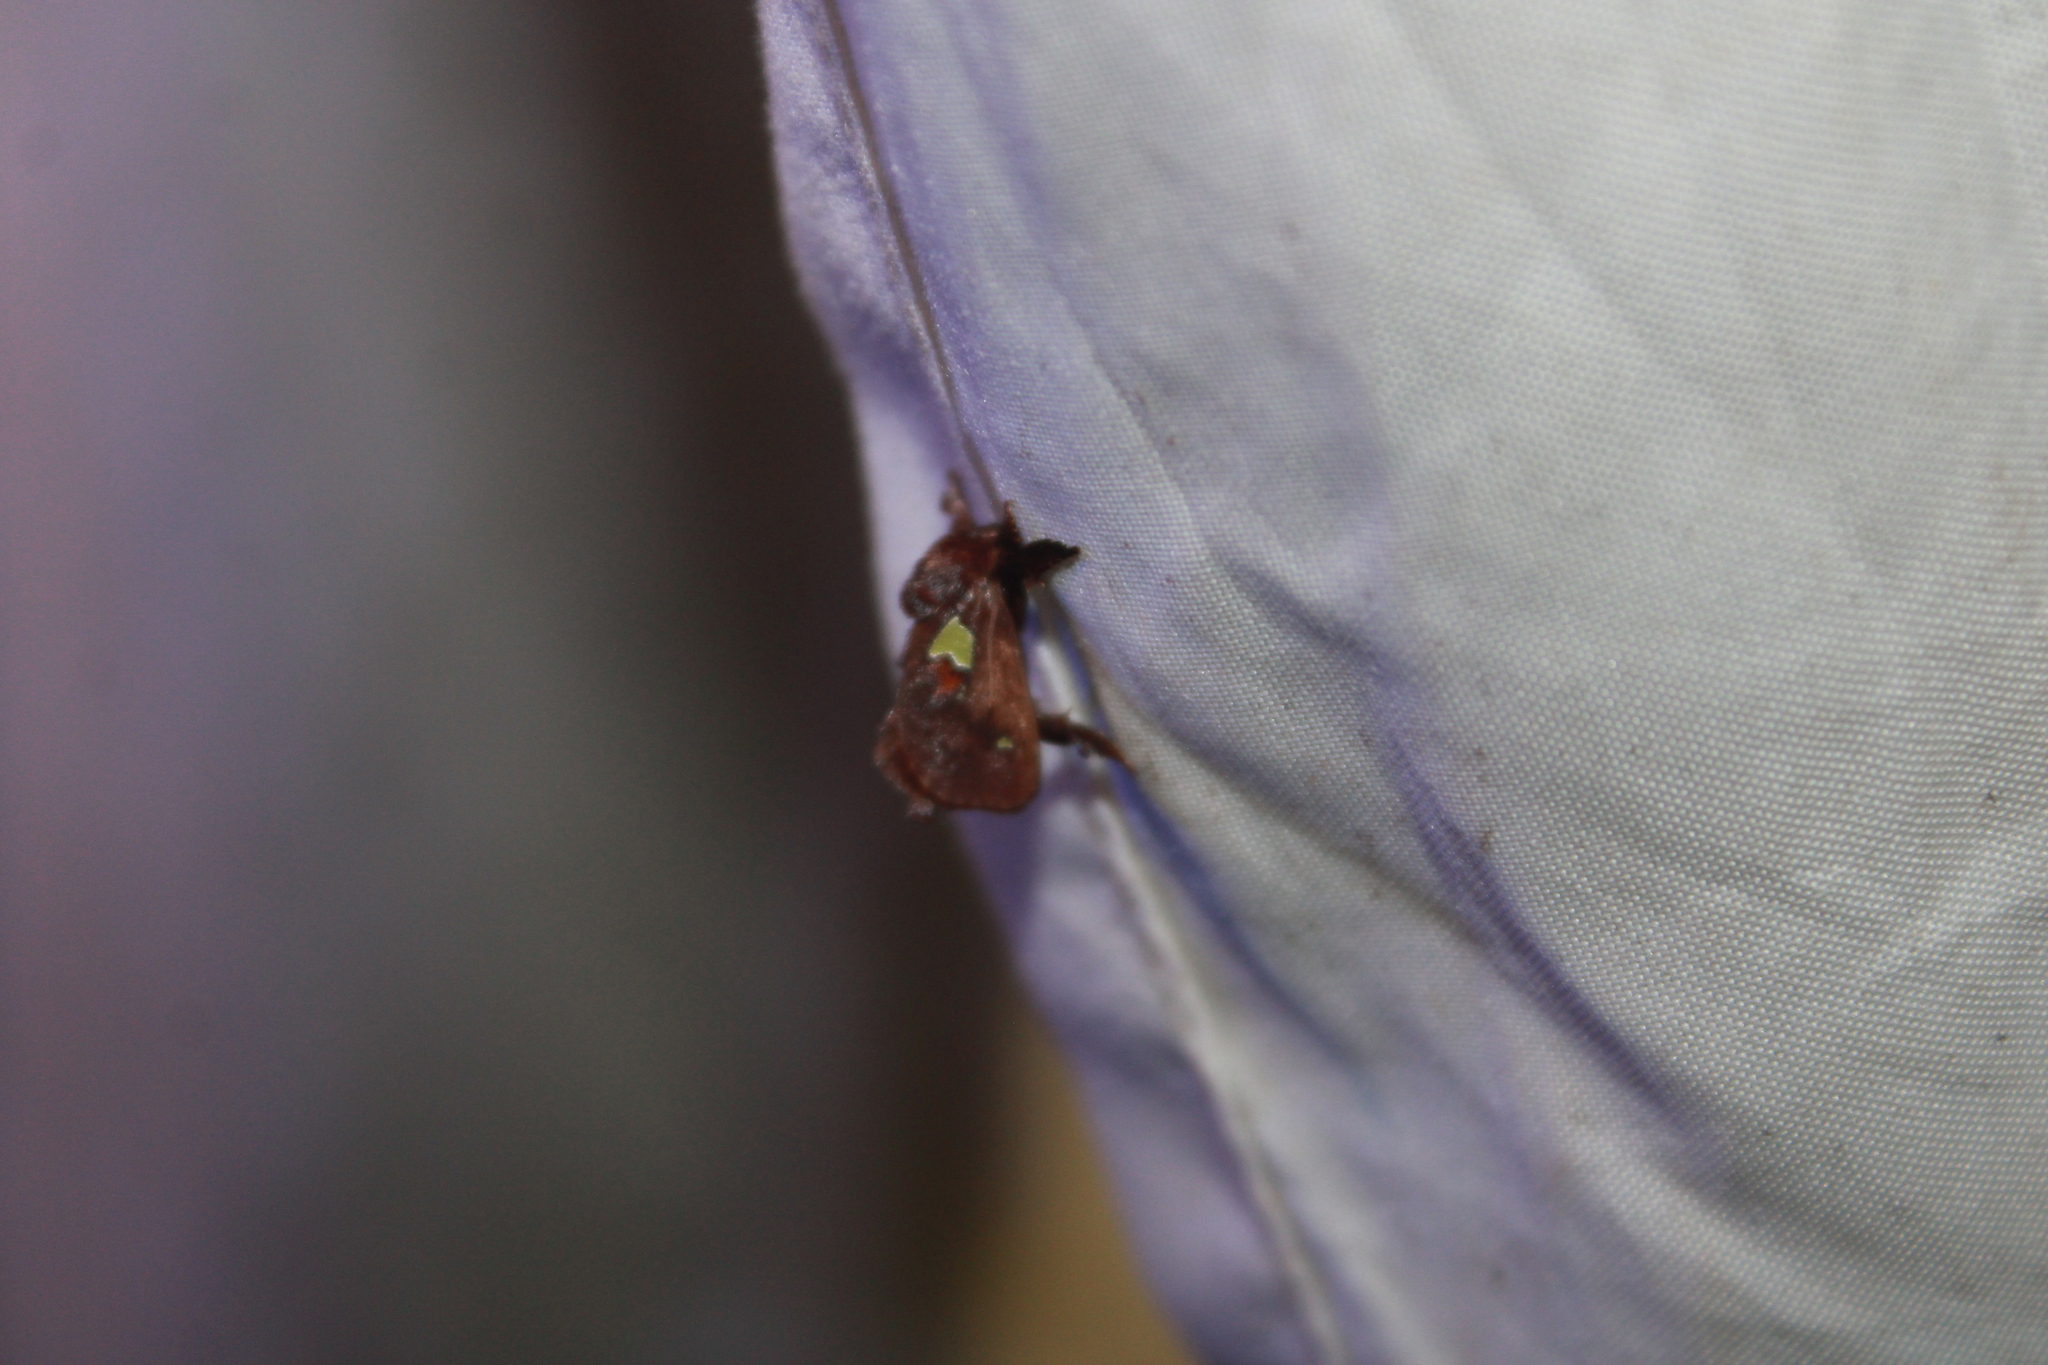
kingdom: Animalia
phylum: Arthropoda
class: Insecta
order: Lepidoptera
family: Limacodidae
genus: Euclea
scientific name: Euclea delphinii
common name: Spiny oak-slug moth
